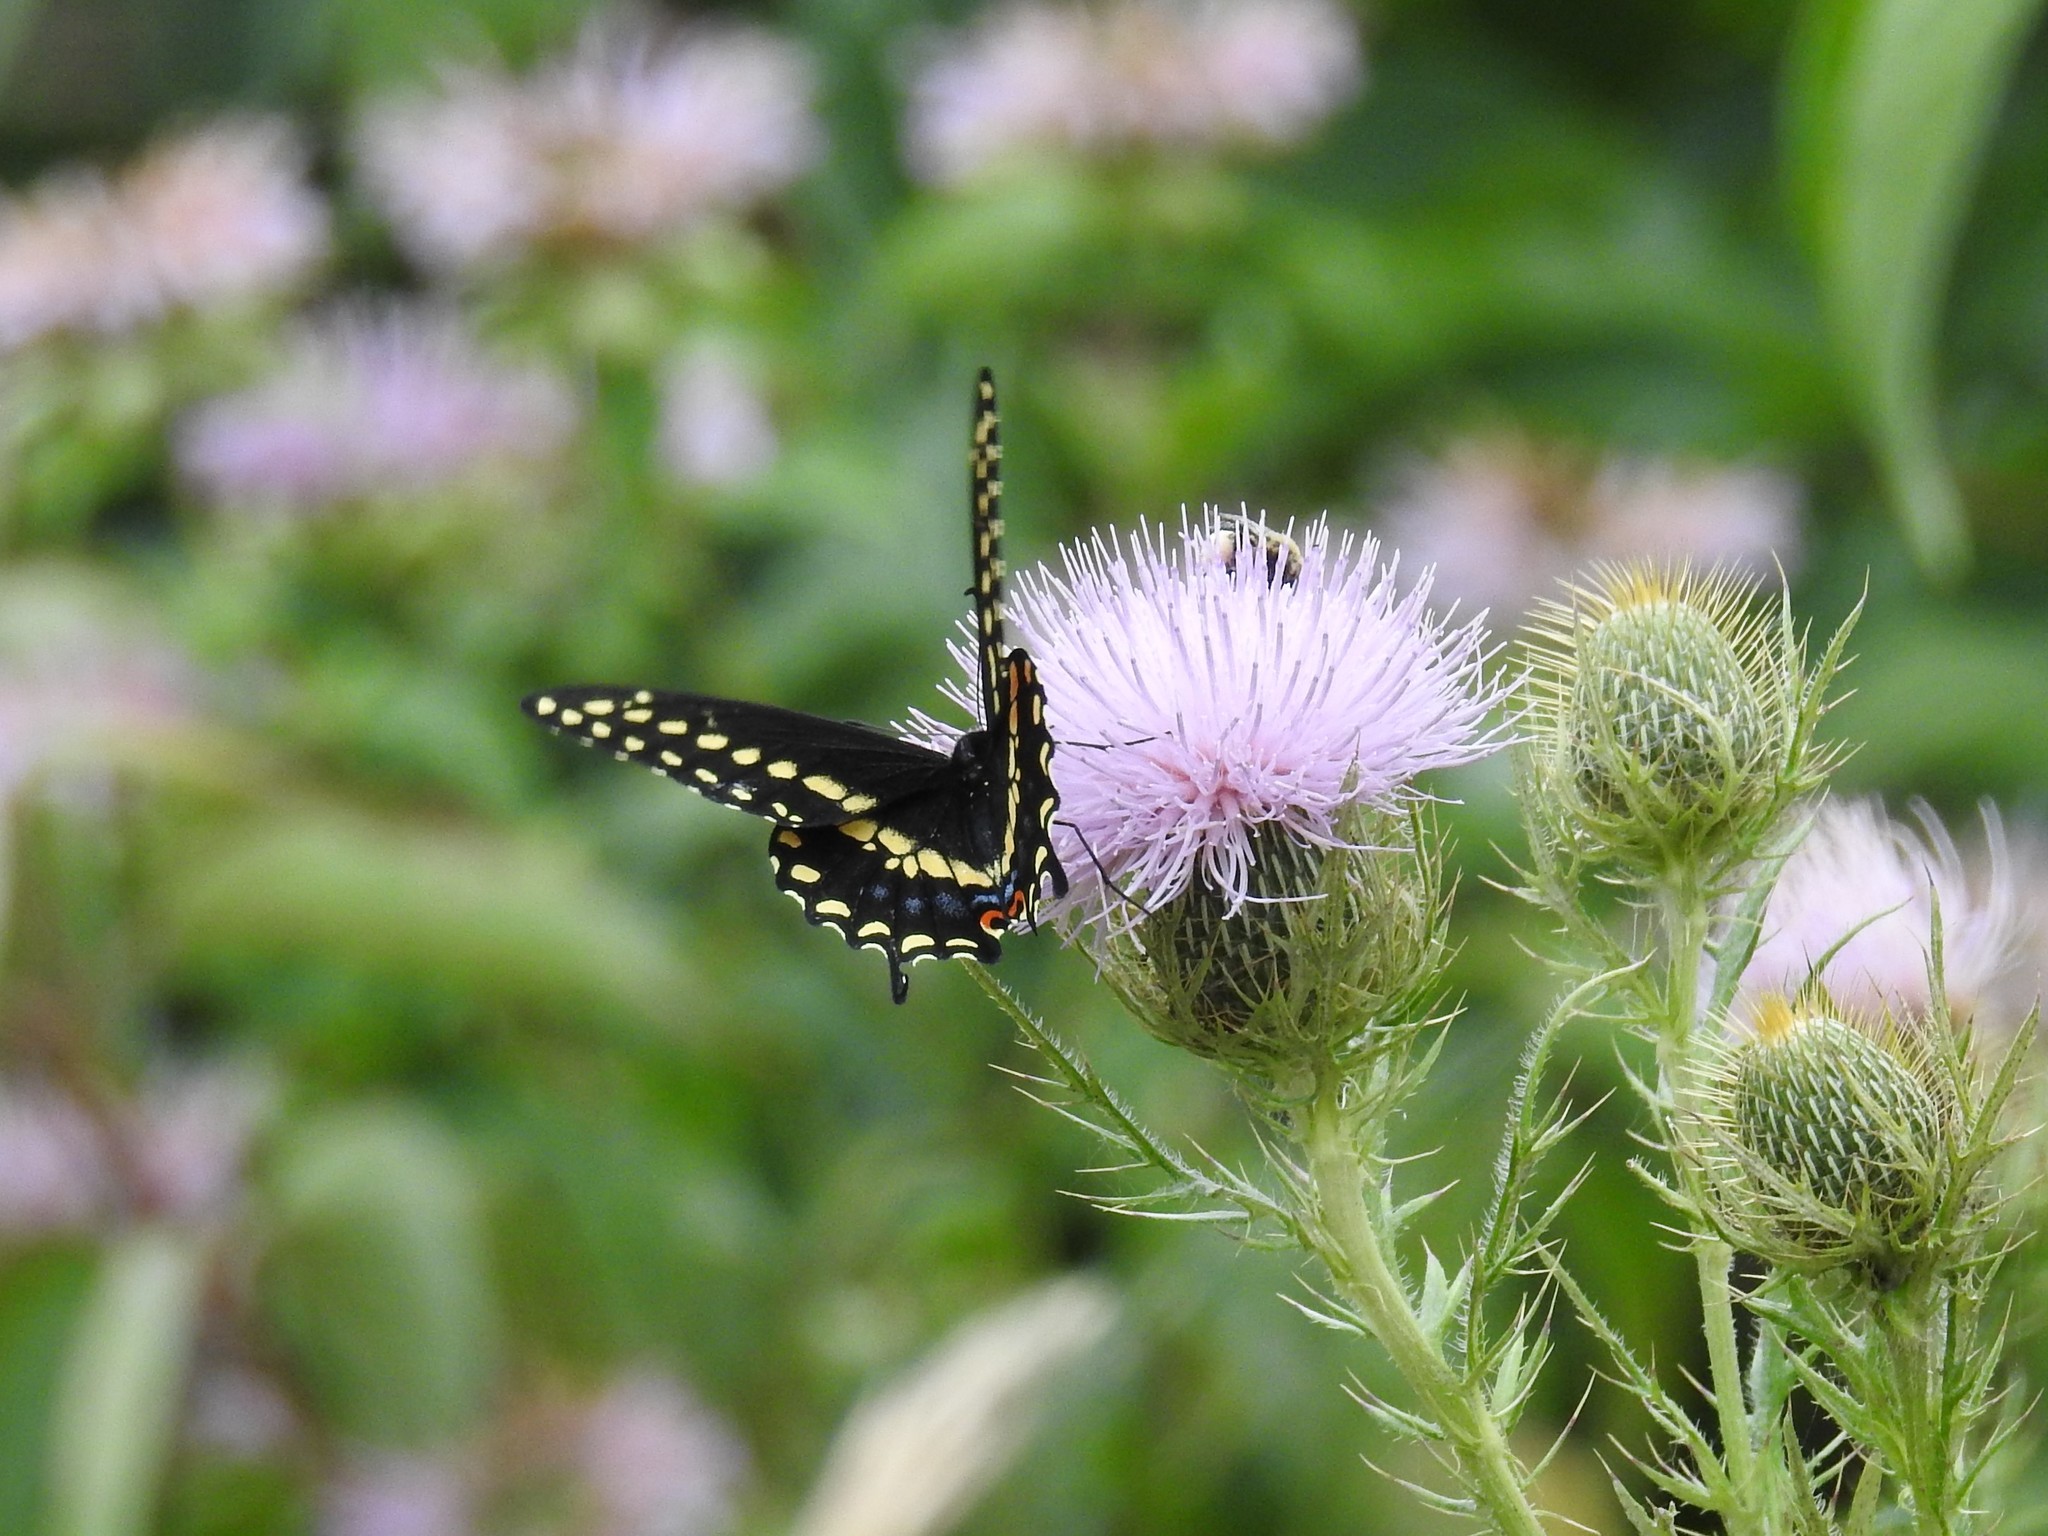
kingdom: Animalia
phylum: Arthropoda
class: Insecta
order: Lepidoptera
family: Papilionidae
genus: Papilio
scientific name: Papilio polyxenes
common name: Black swallowtail
